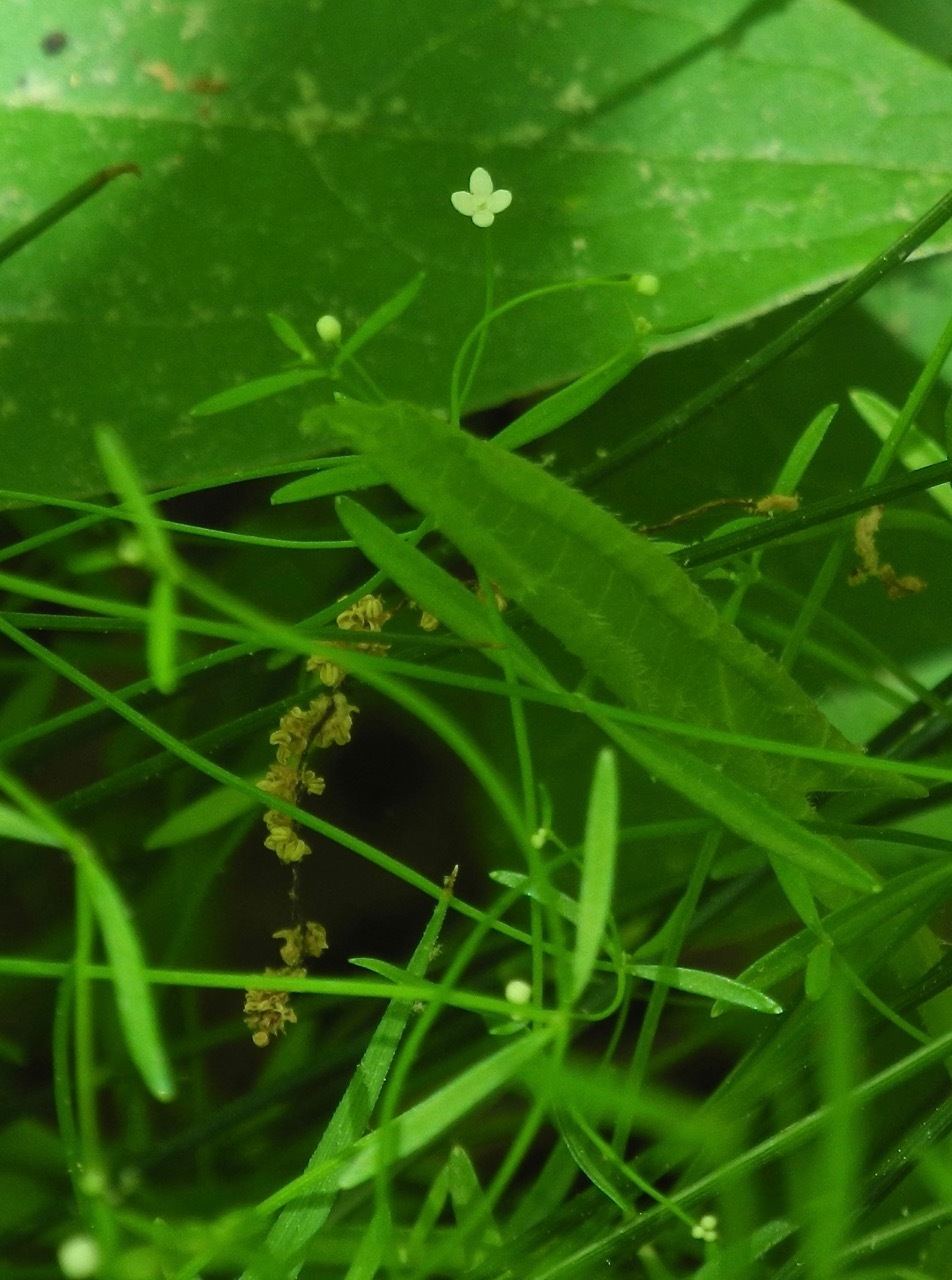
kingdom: Plantae
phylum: Tracheophyta
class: Magnoliopsida
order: Gentianales
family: Rubiaceae
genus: Galium
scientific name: Galium obtusum
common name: Blunt-leaved bedstraw
